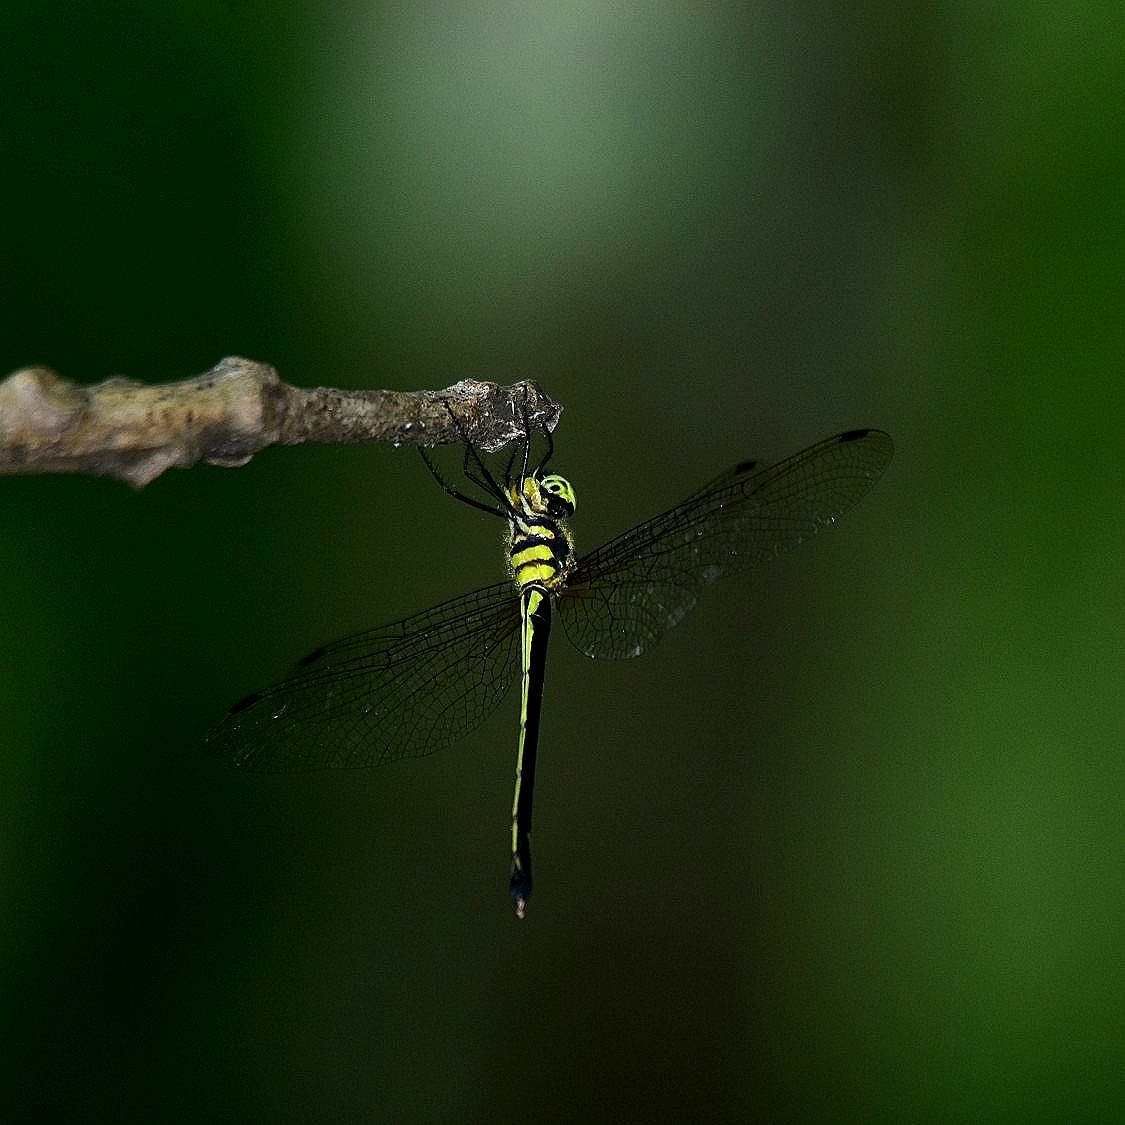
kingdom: Animalia
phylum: Arthropoda
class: Insecta
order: Odonata
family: Corduliidae
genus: Macromidia
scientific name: Macromidia donaldi
